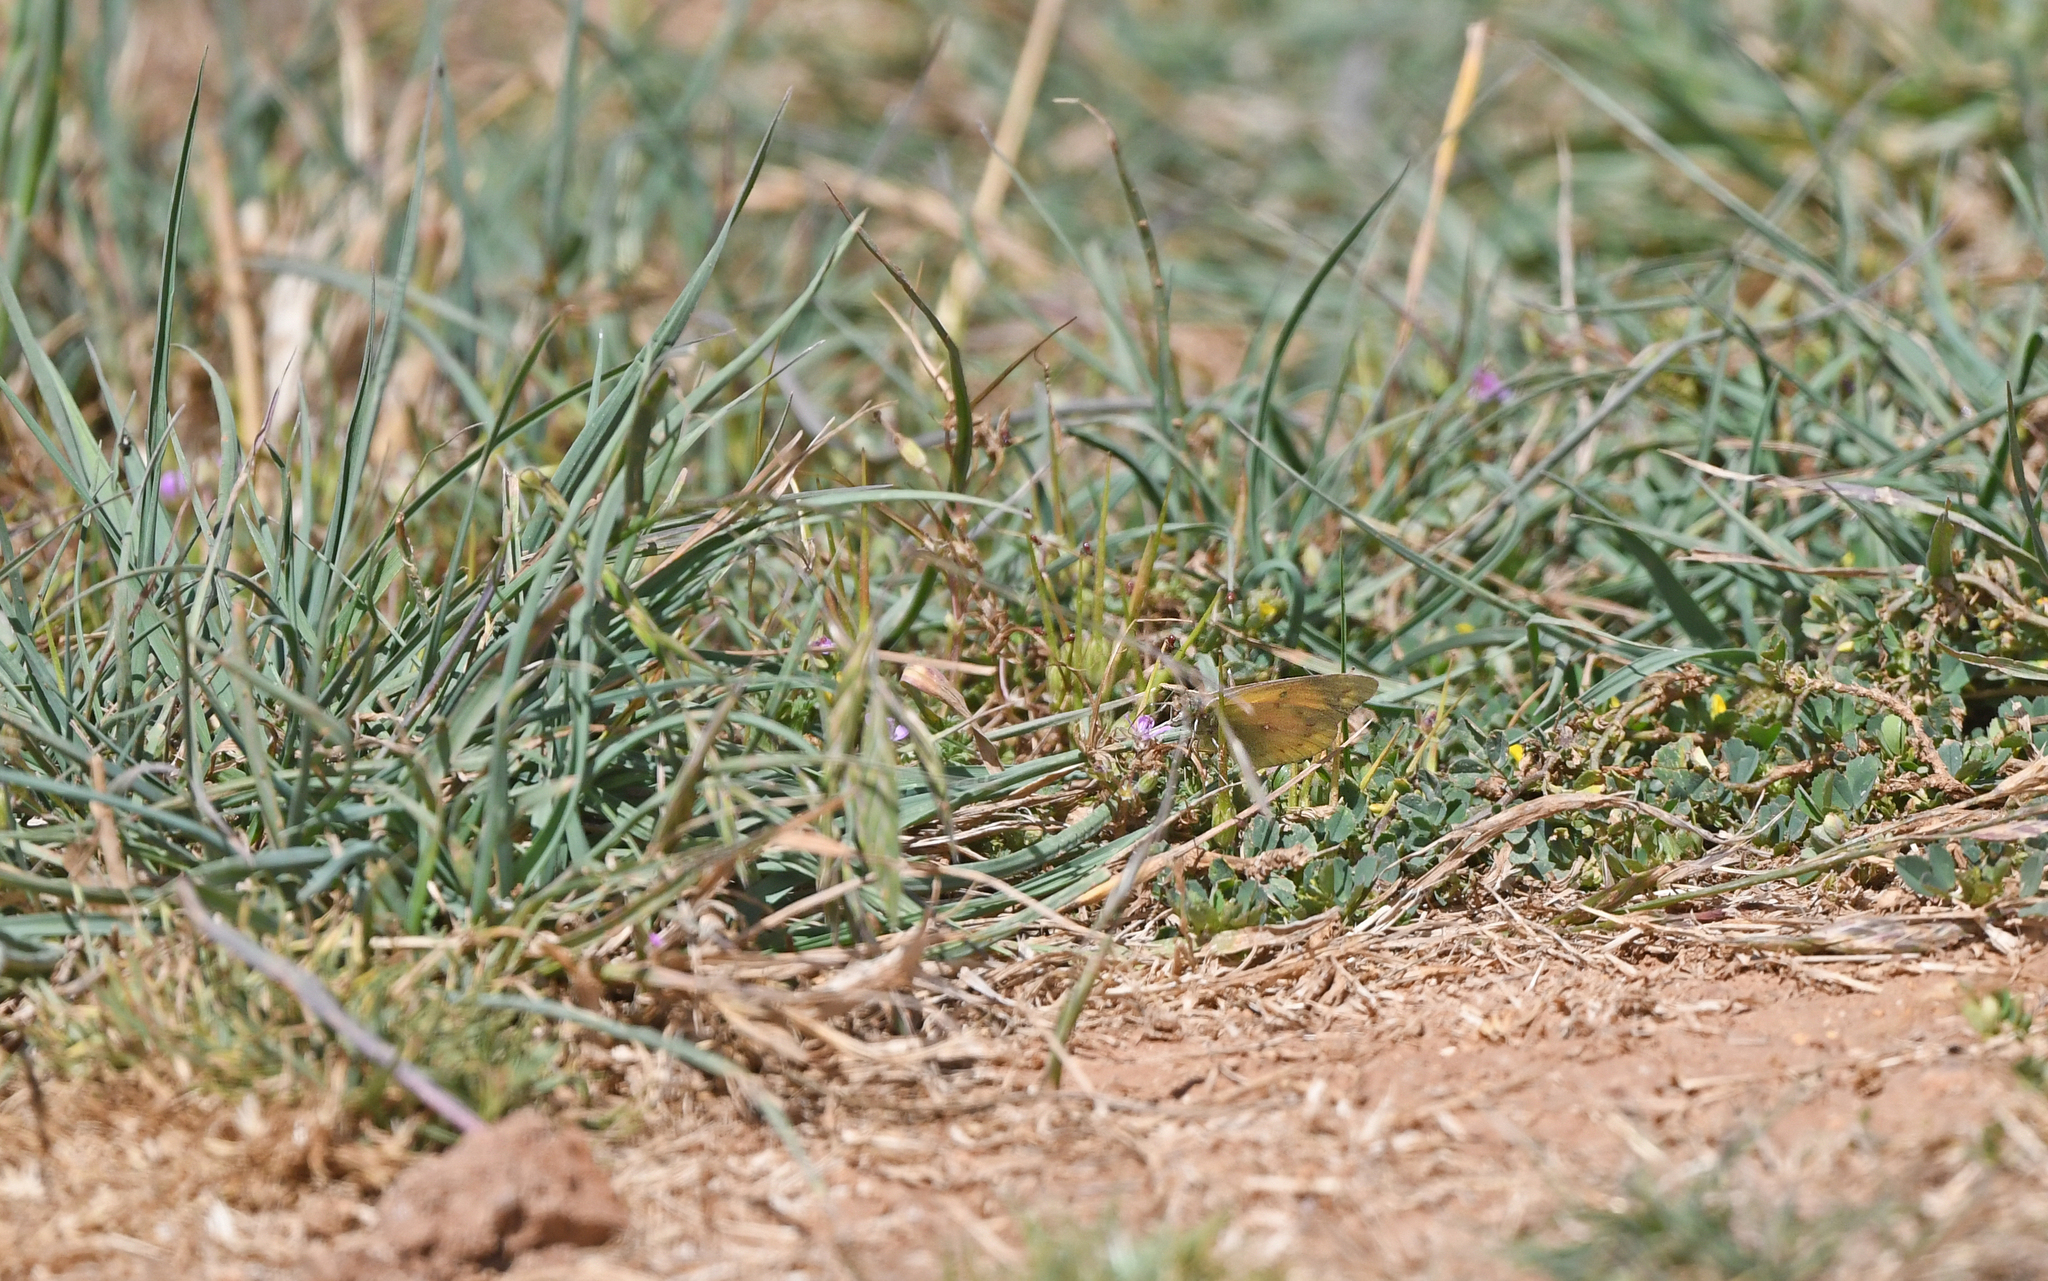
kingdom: Animalia
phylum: Arthropoda
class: Insecta
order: Lepidoptera
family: Pieridae
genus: Colias
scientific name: Colias euxanthe
